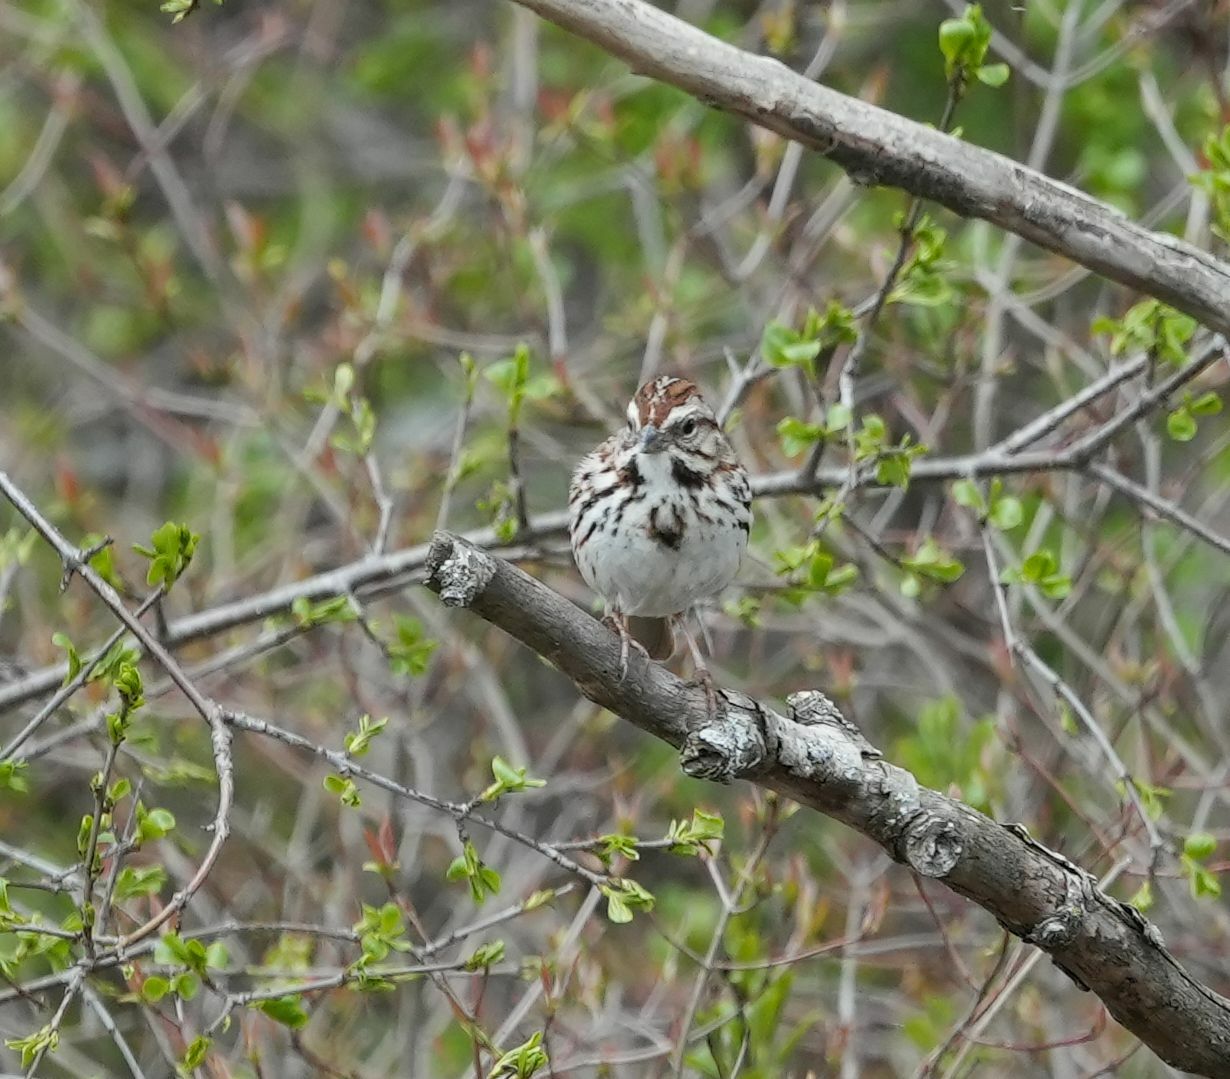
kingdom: Animalia
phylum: Chordata
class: Aves
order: Passeriformes
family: Passerellidae
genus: Melospiza
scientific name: Melospiza melodia
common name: Song sparrow
